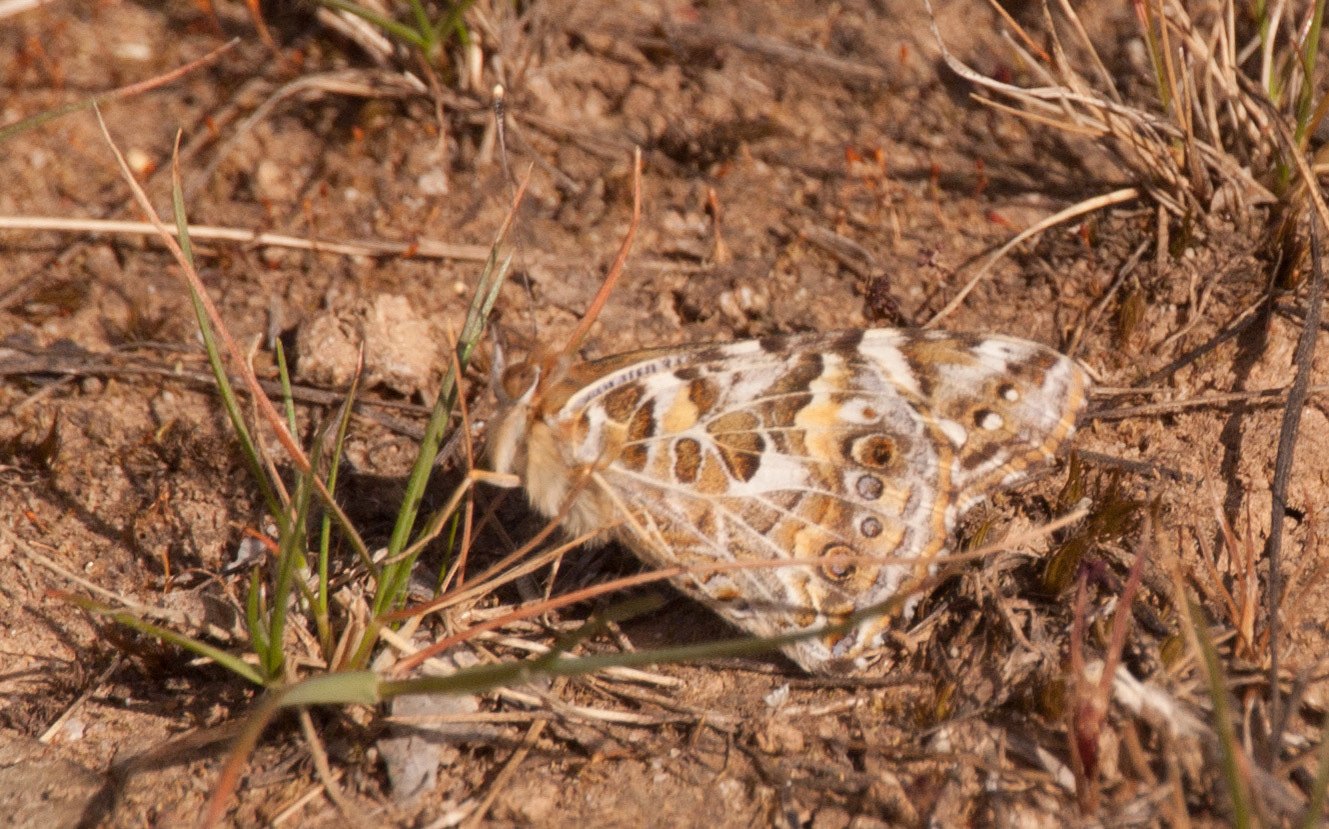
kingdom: Animalia
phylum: Arthropoda
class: Insecta
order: Lepidoptera
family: Nymphalidae
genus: Vanessa
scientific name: Vanessa kershawi
